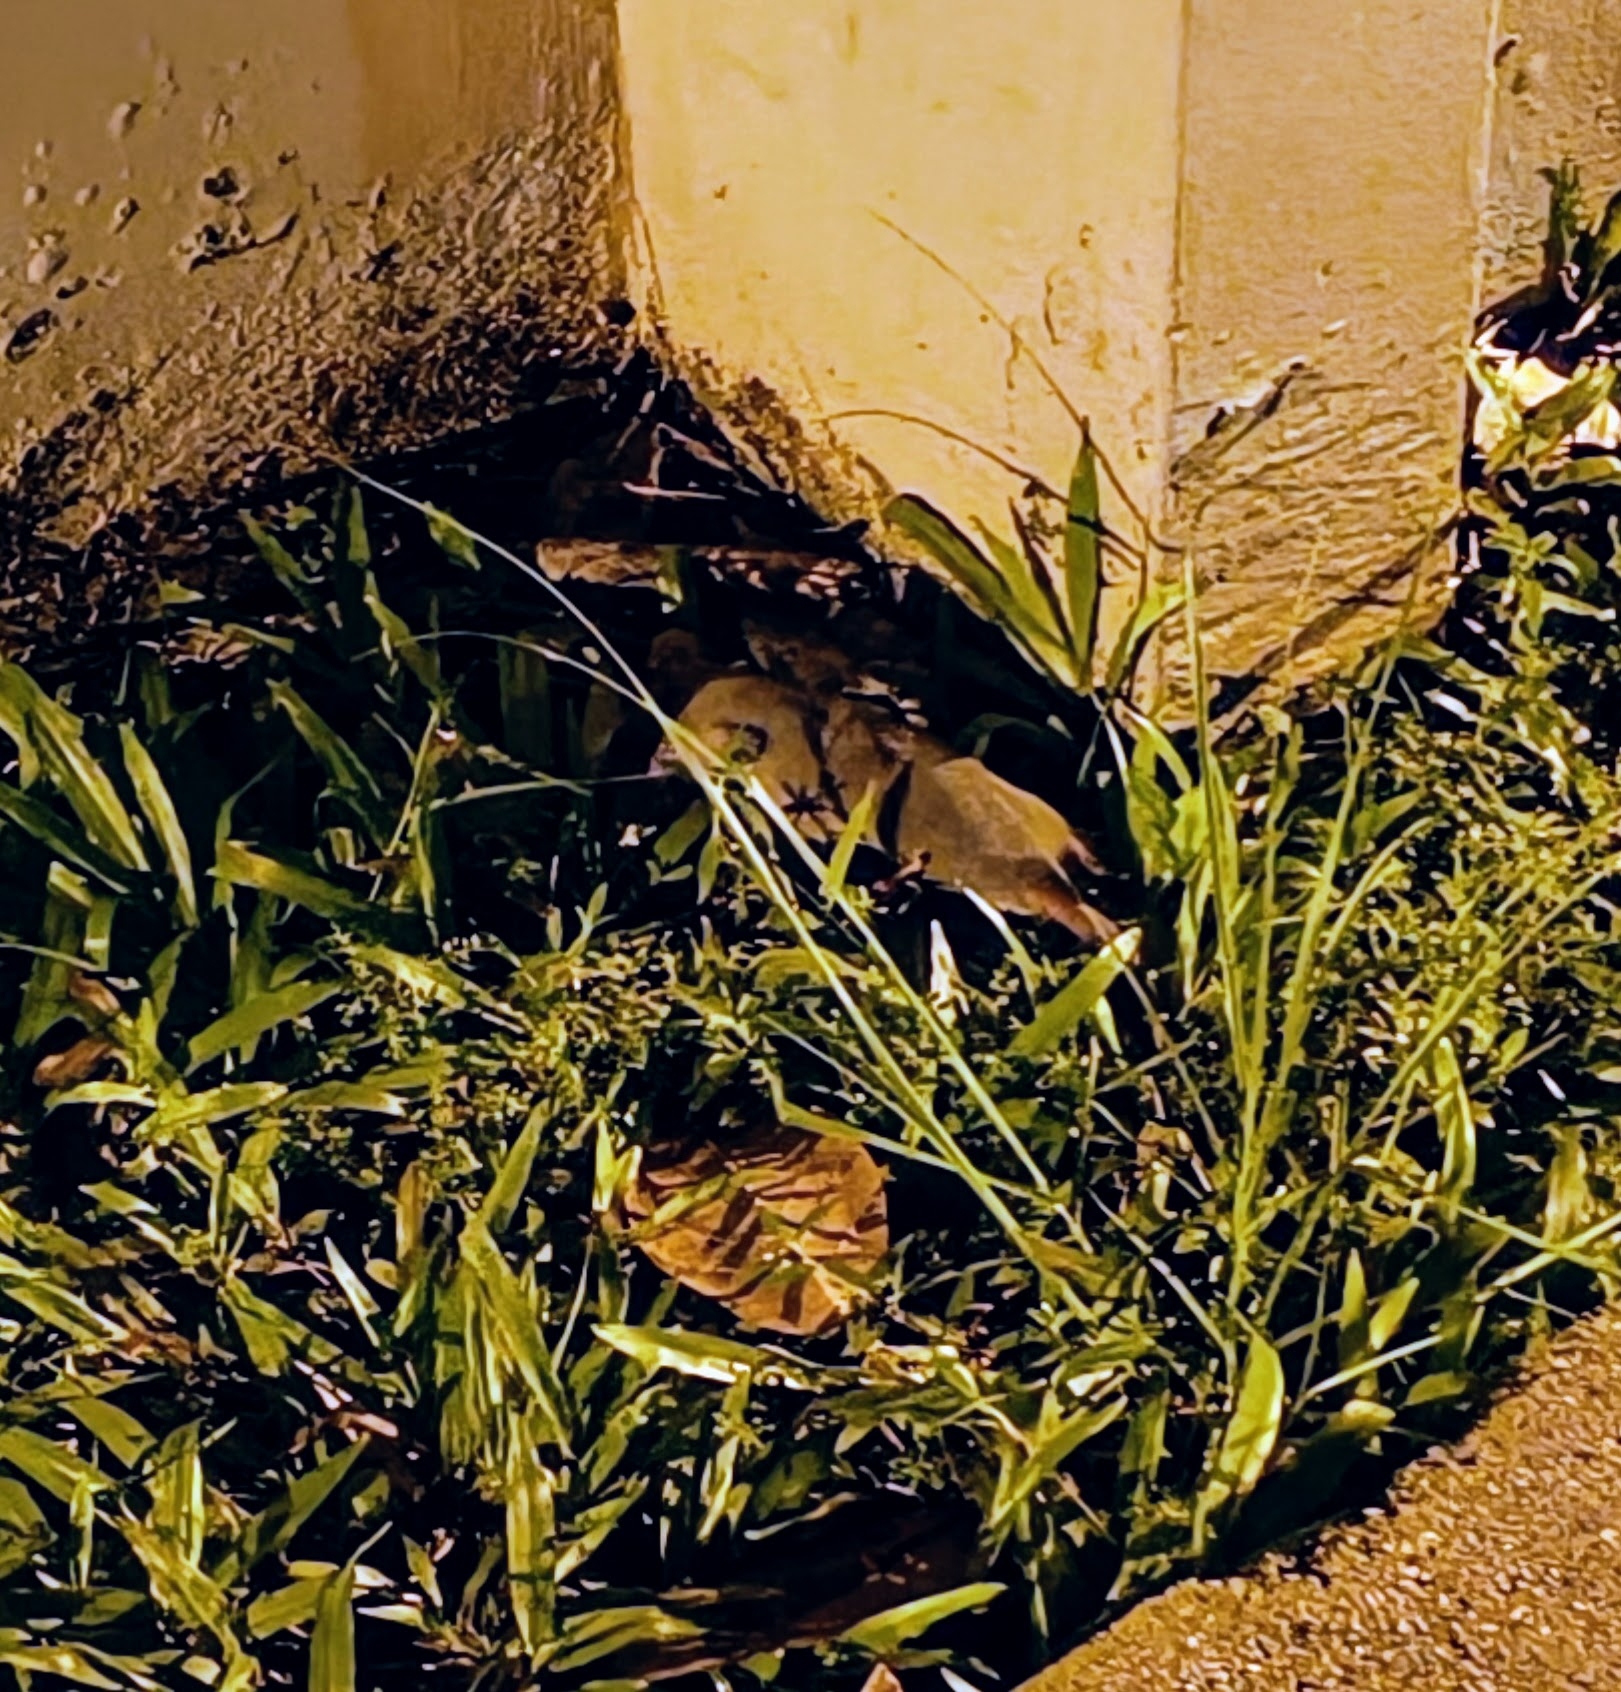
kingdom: Animalia
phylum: Chordata
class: Mammalia
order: Soricomorpha
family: Soricidae
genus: Suncus
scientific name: Suncus murinus
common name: Asian house shrew
